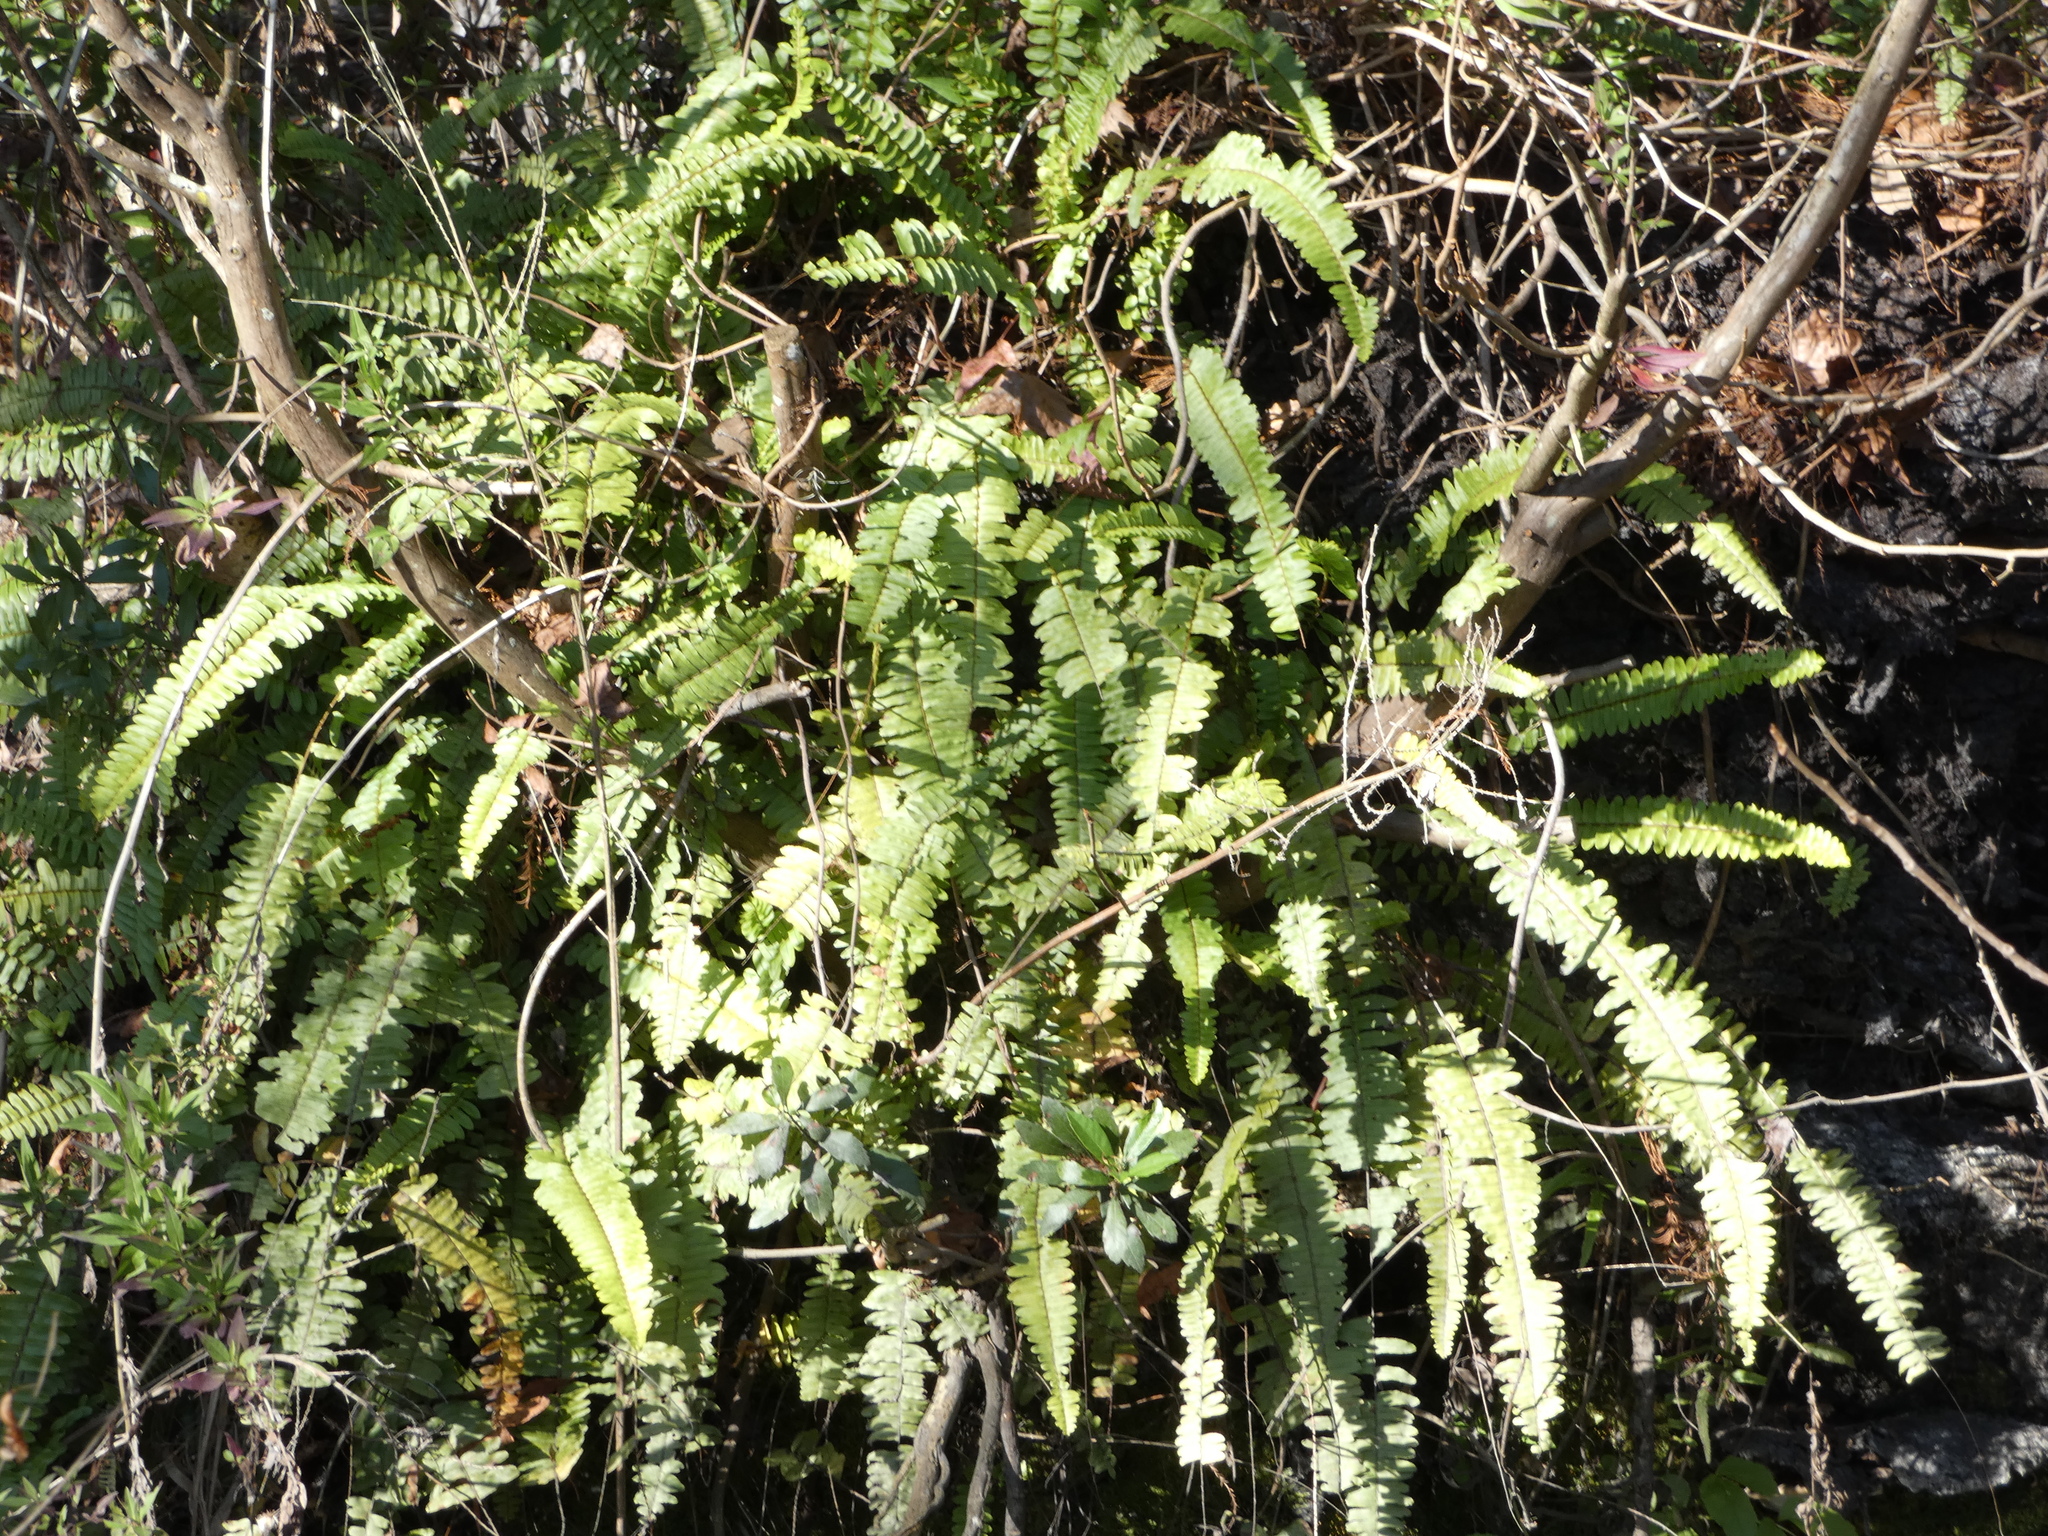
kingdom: Plantae
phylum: Tracheophyta
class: Polypodiopsida
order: Polypodiales
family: Nephrolepidaceae
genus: Nephrolepis
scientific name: Nephrolepis cordifolia
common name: Narrow swordfern
